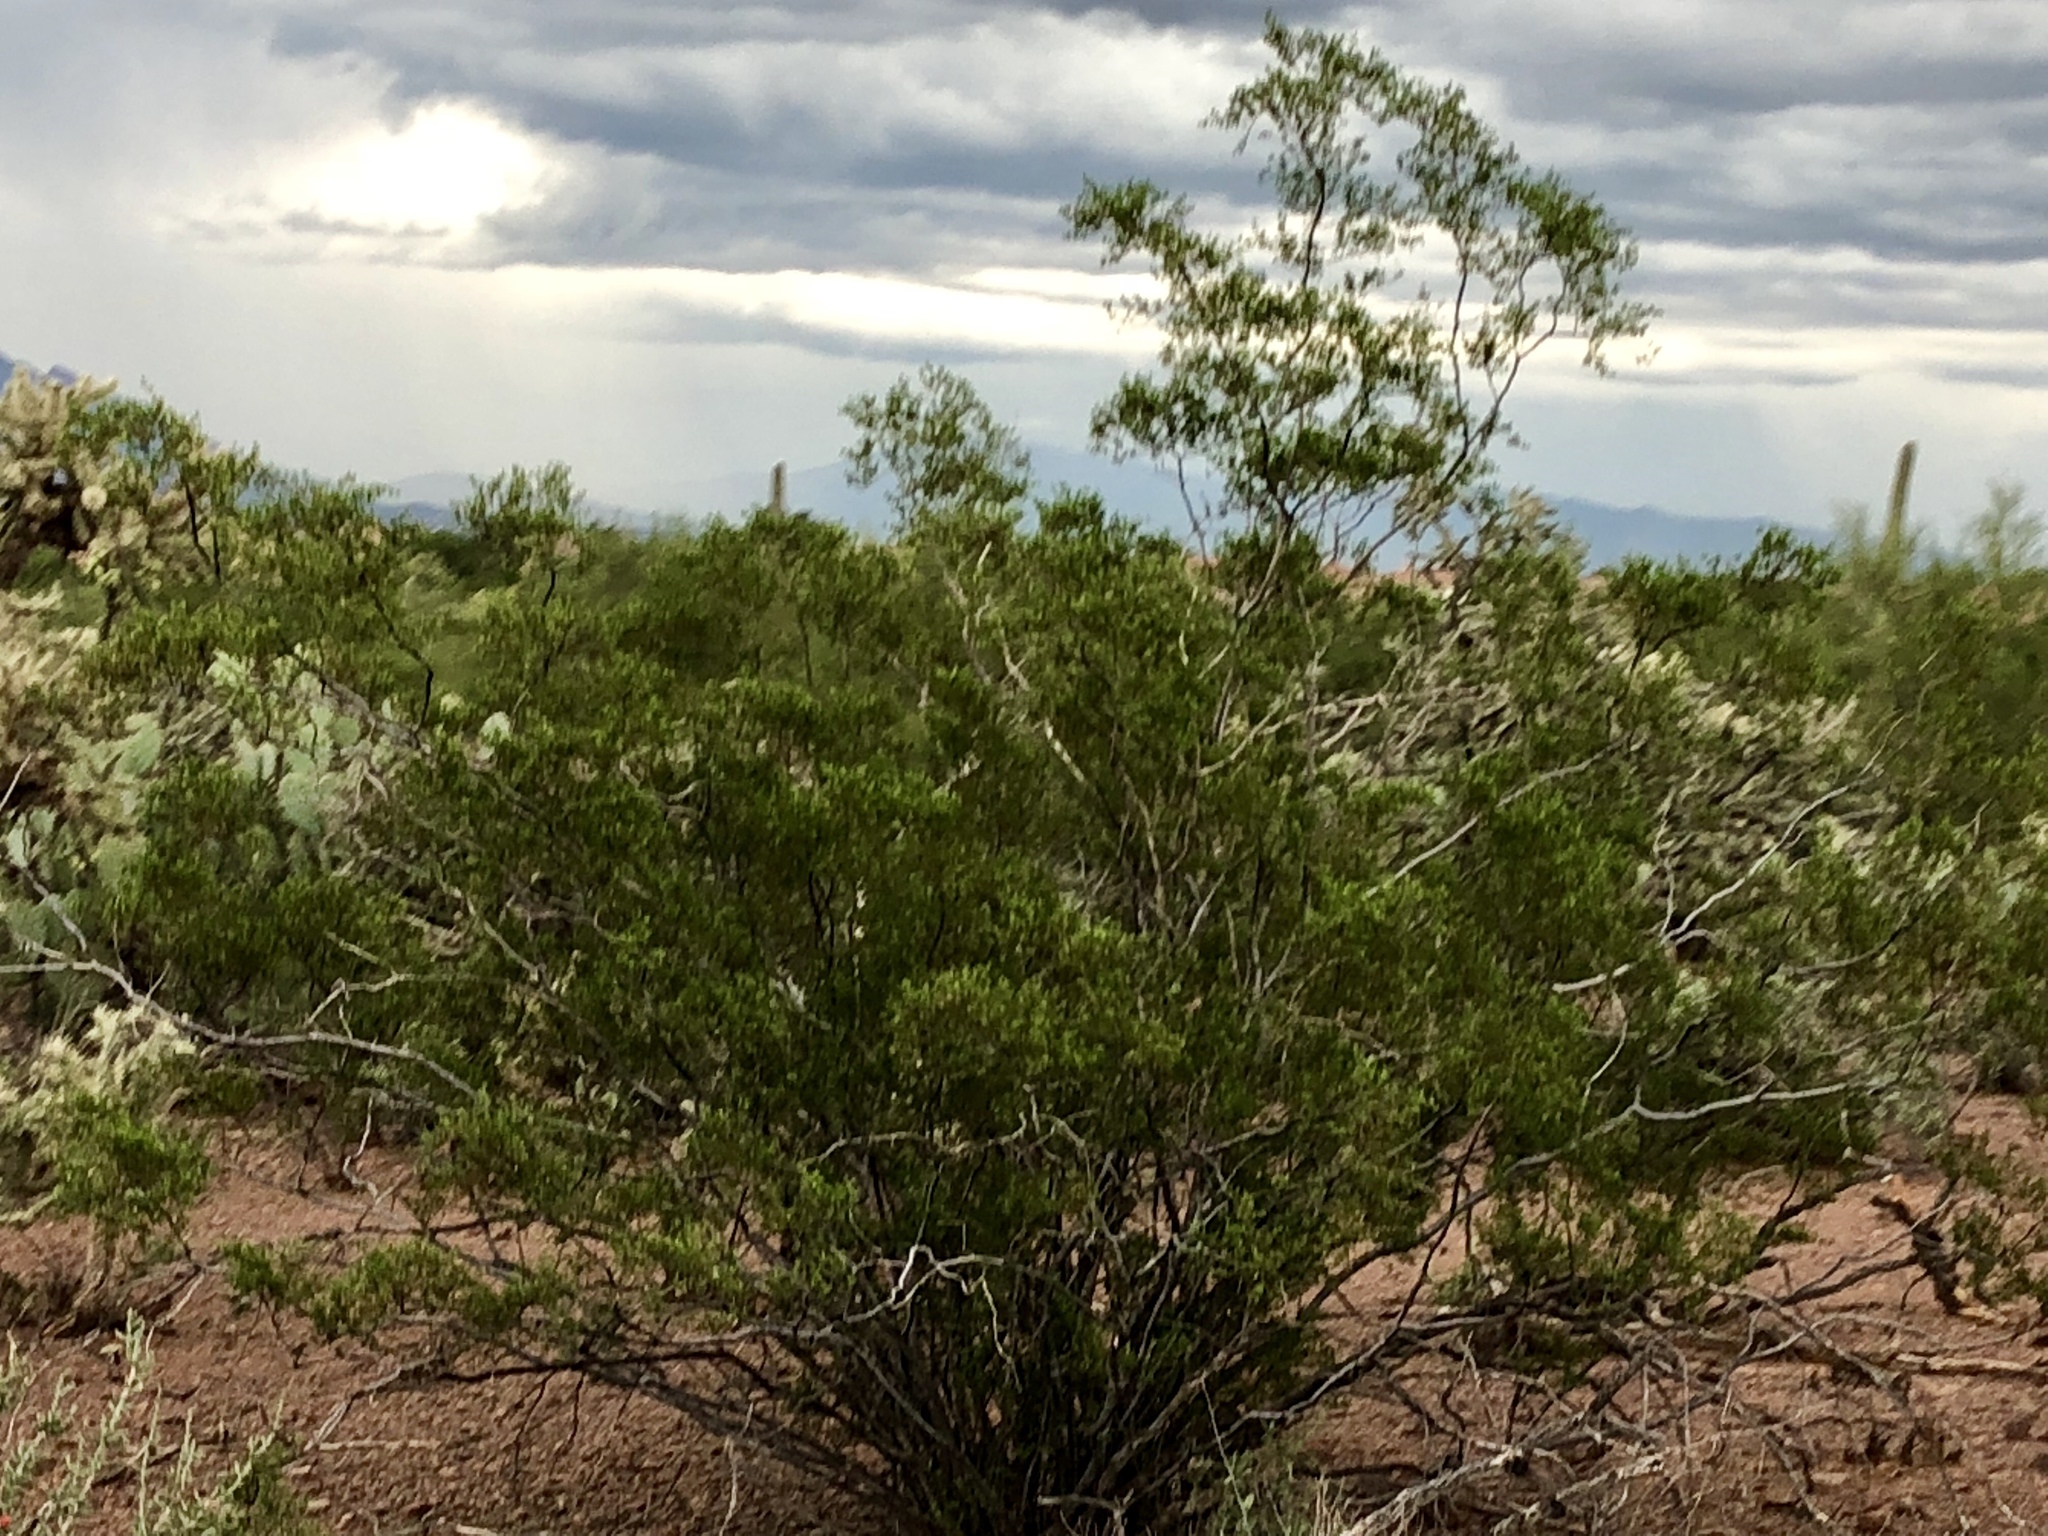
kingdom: Plantae
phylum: Tracheophyta
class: Magnoliopsida
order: Zygophyllales
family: Zygophyllaceae
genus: Larrea
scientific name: Larrea tridentata
